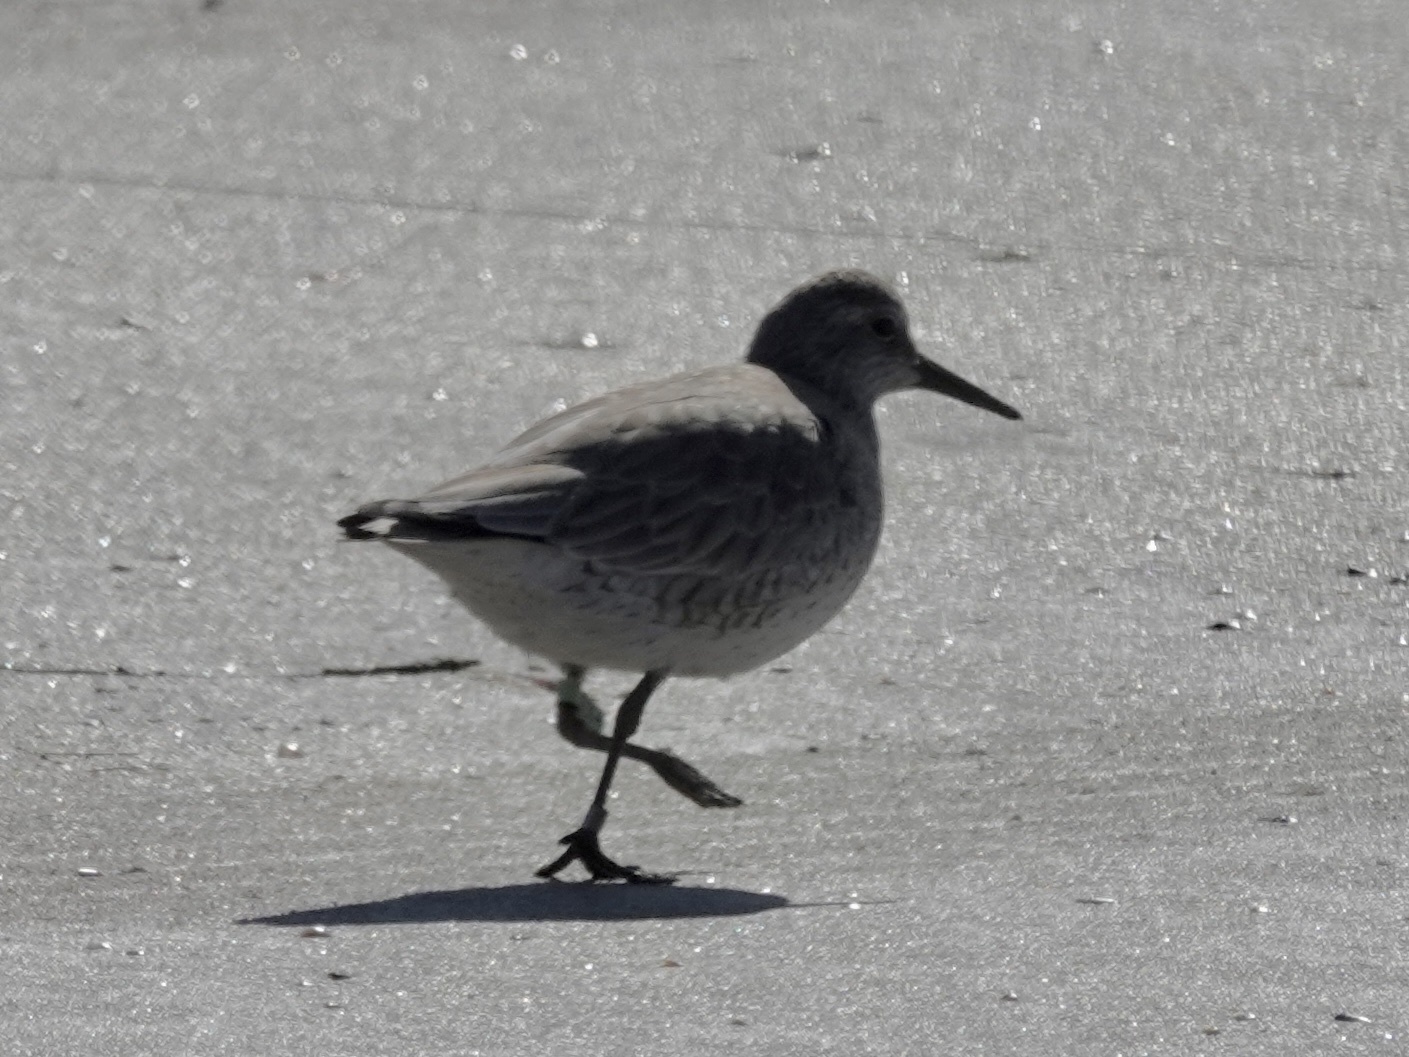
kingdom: Animalia
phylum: Chordata
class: Aves
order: Charadriiformes
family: Scolopacidae
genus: Calidris
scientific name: Calidris canutus
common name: Red knot
